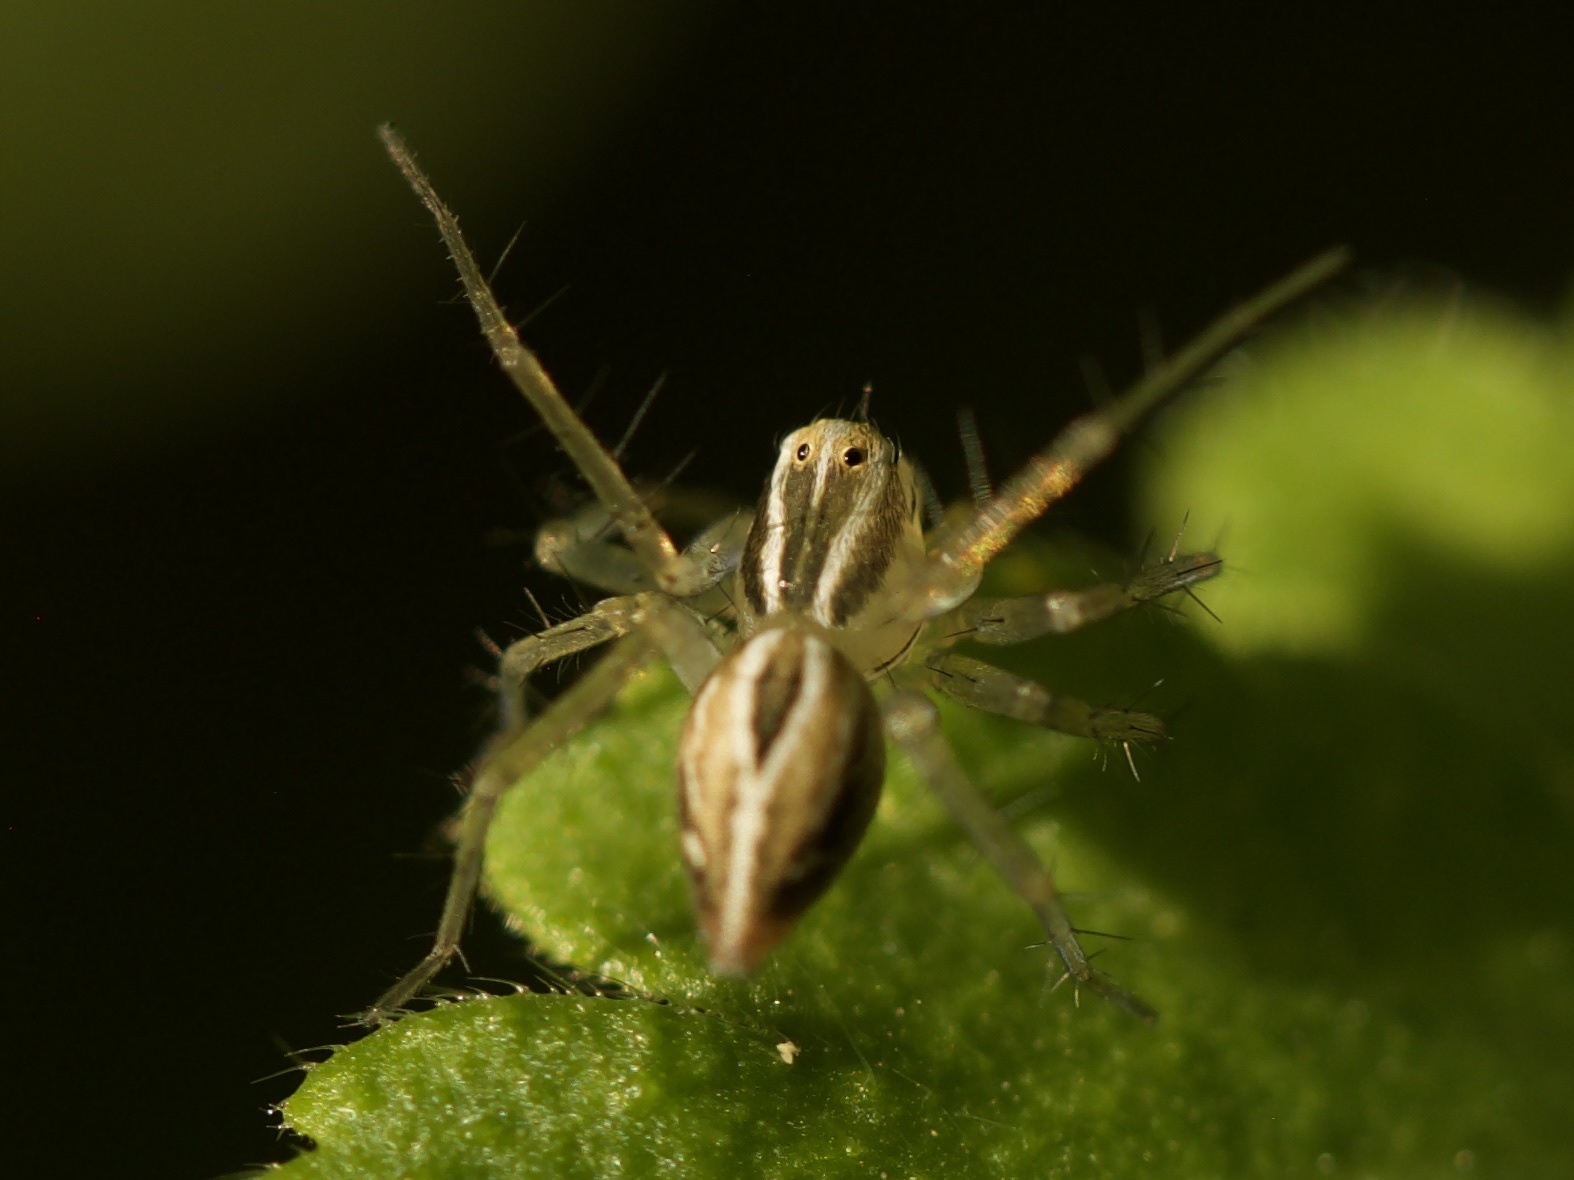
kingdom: Animalia
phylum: Arthropoda
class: Arachnida
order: Araneae
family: Oxyopidae
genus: Oxyopes
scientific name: Oxyopes salticus
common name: Lynx spiders
